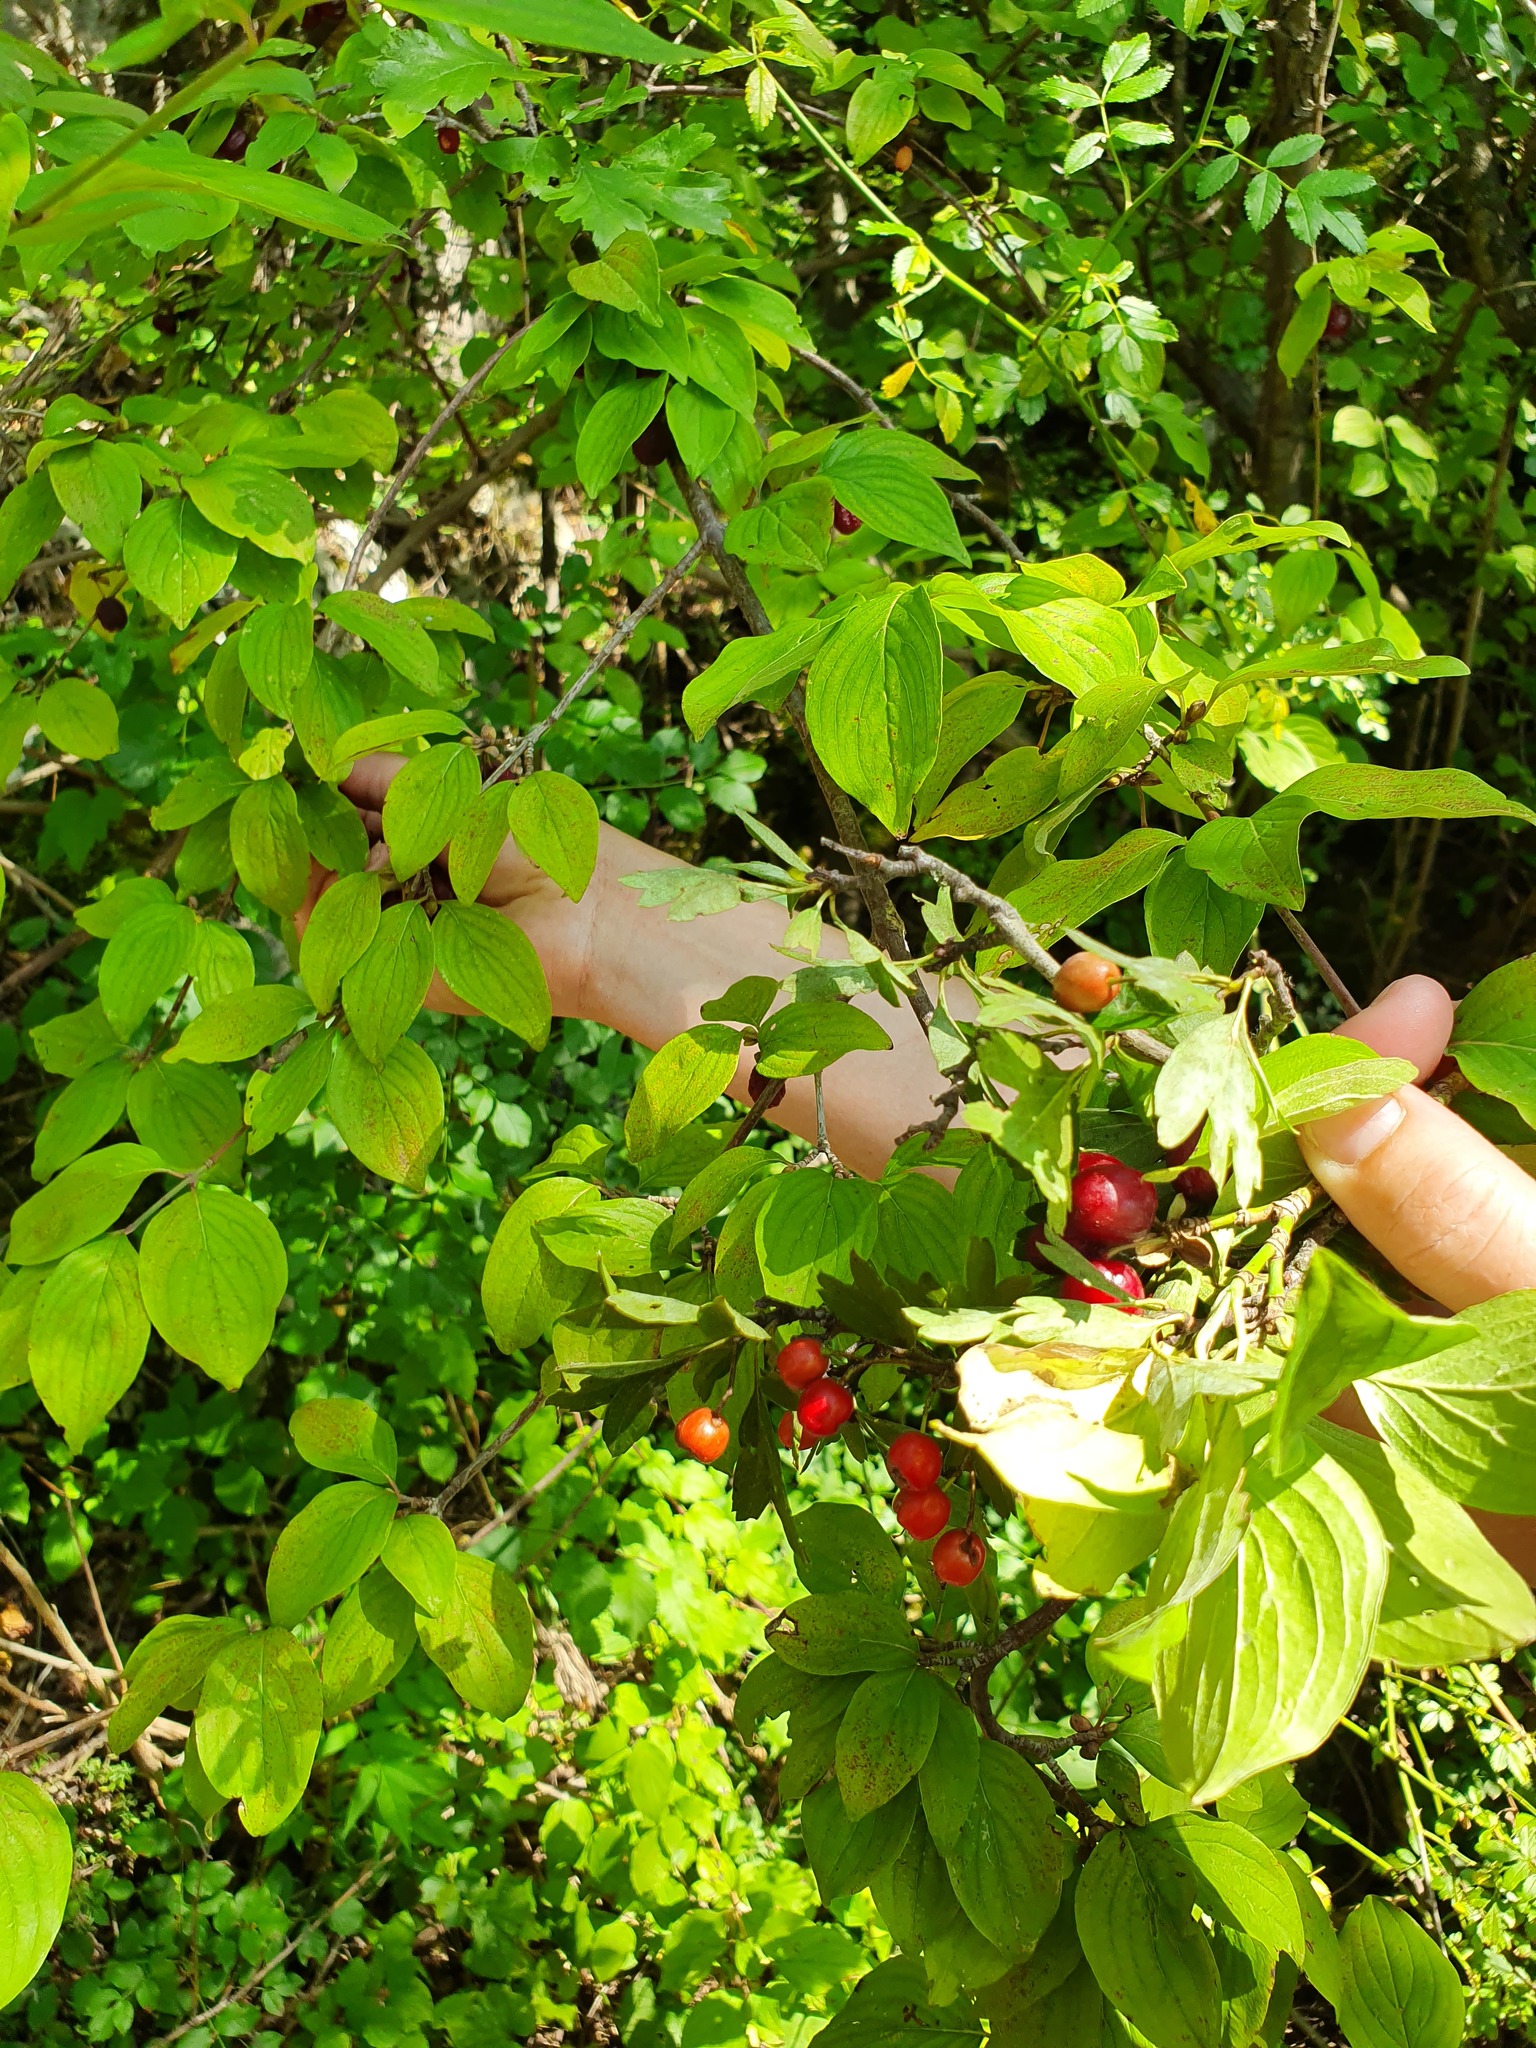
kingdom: Plantae
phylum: Tracheophyta
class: Magnoliopsida
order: Cornales
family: Cornaceae
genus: Cornus
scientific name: Cornus mas
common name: Cornelian-cherry
